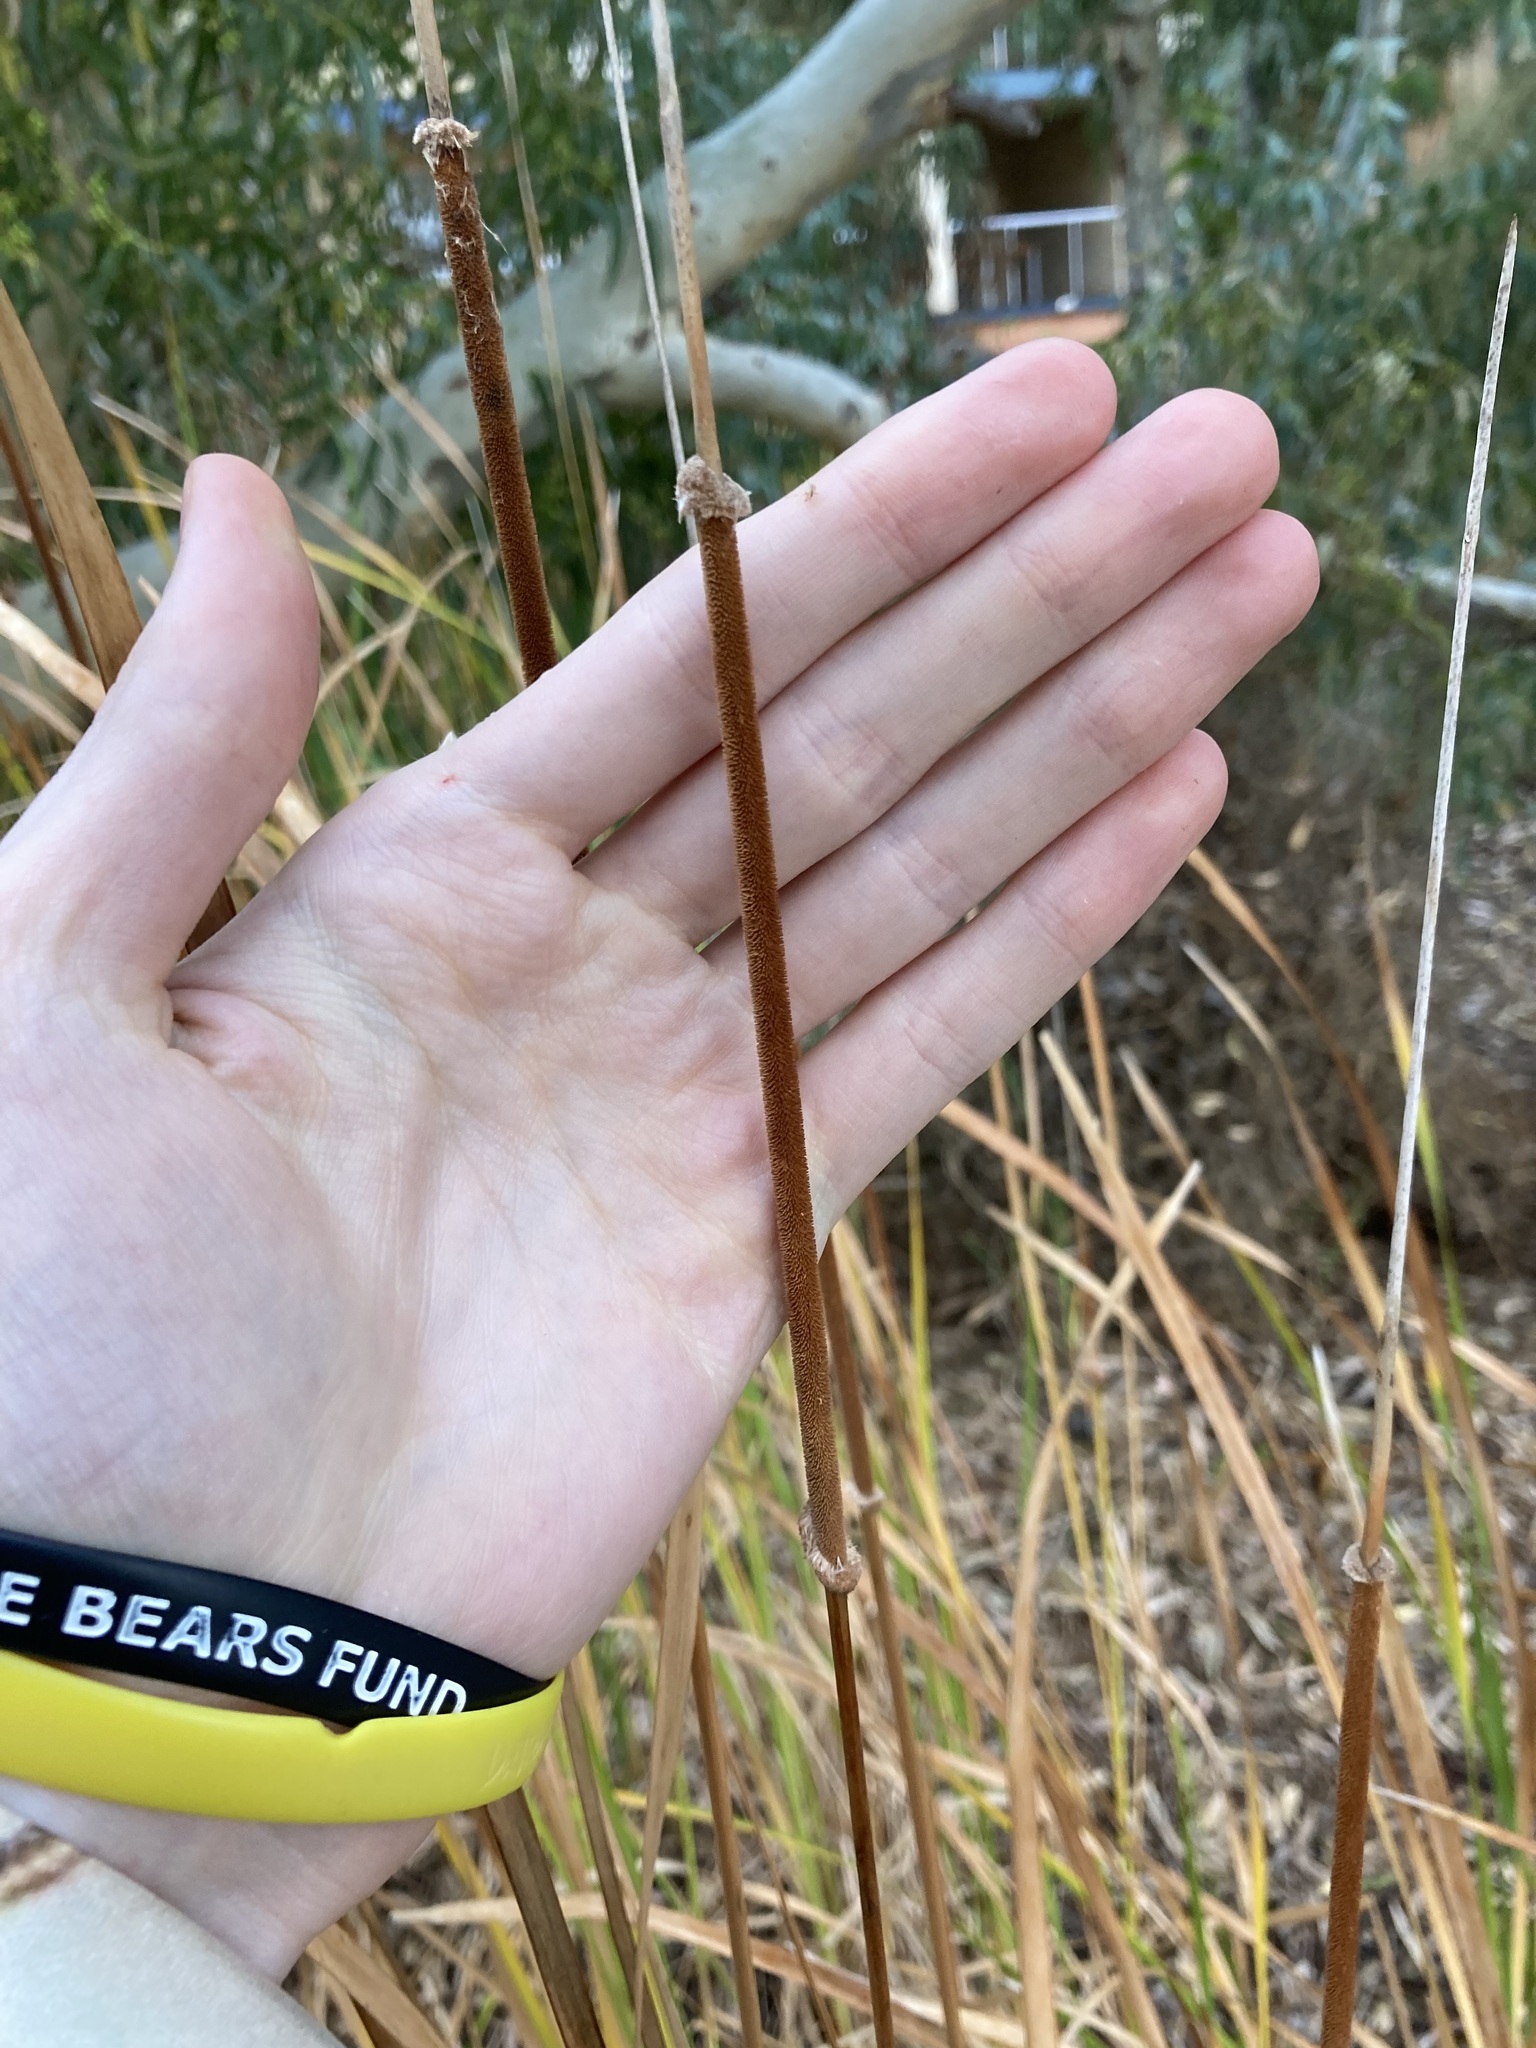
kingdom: Plantae
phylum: Tracheophyta
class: Liliopsida
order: Poales
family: Typhaceae
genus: Typha
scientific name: Typha domingensis
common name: Southern cattail
